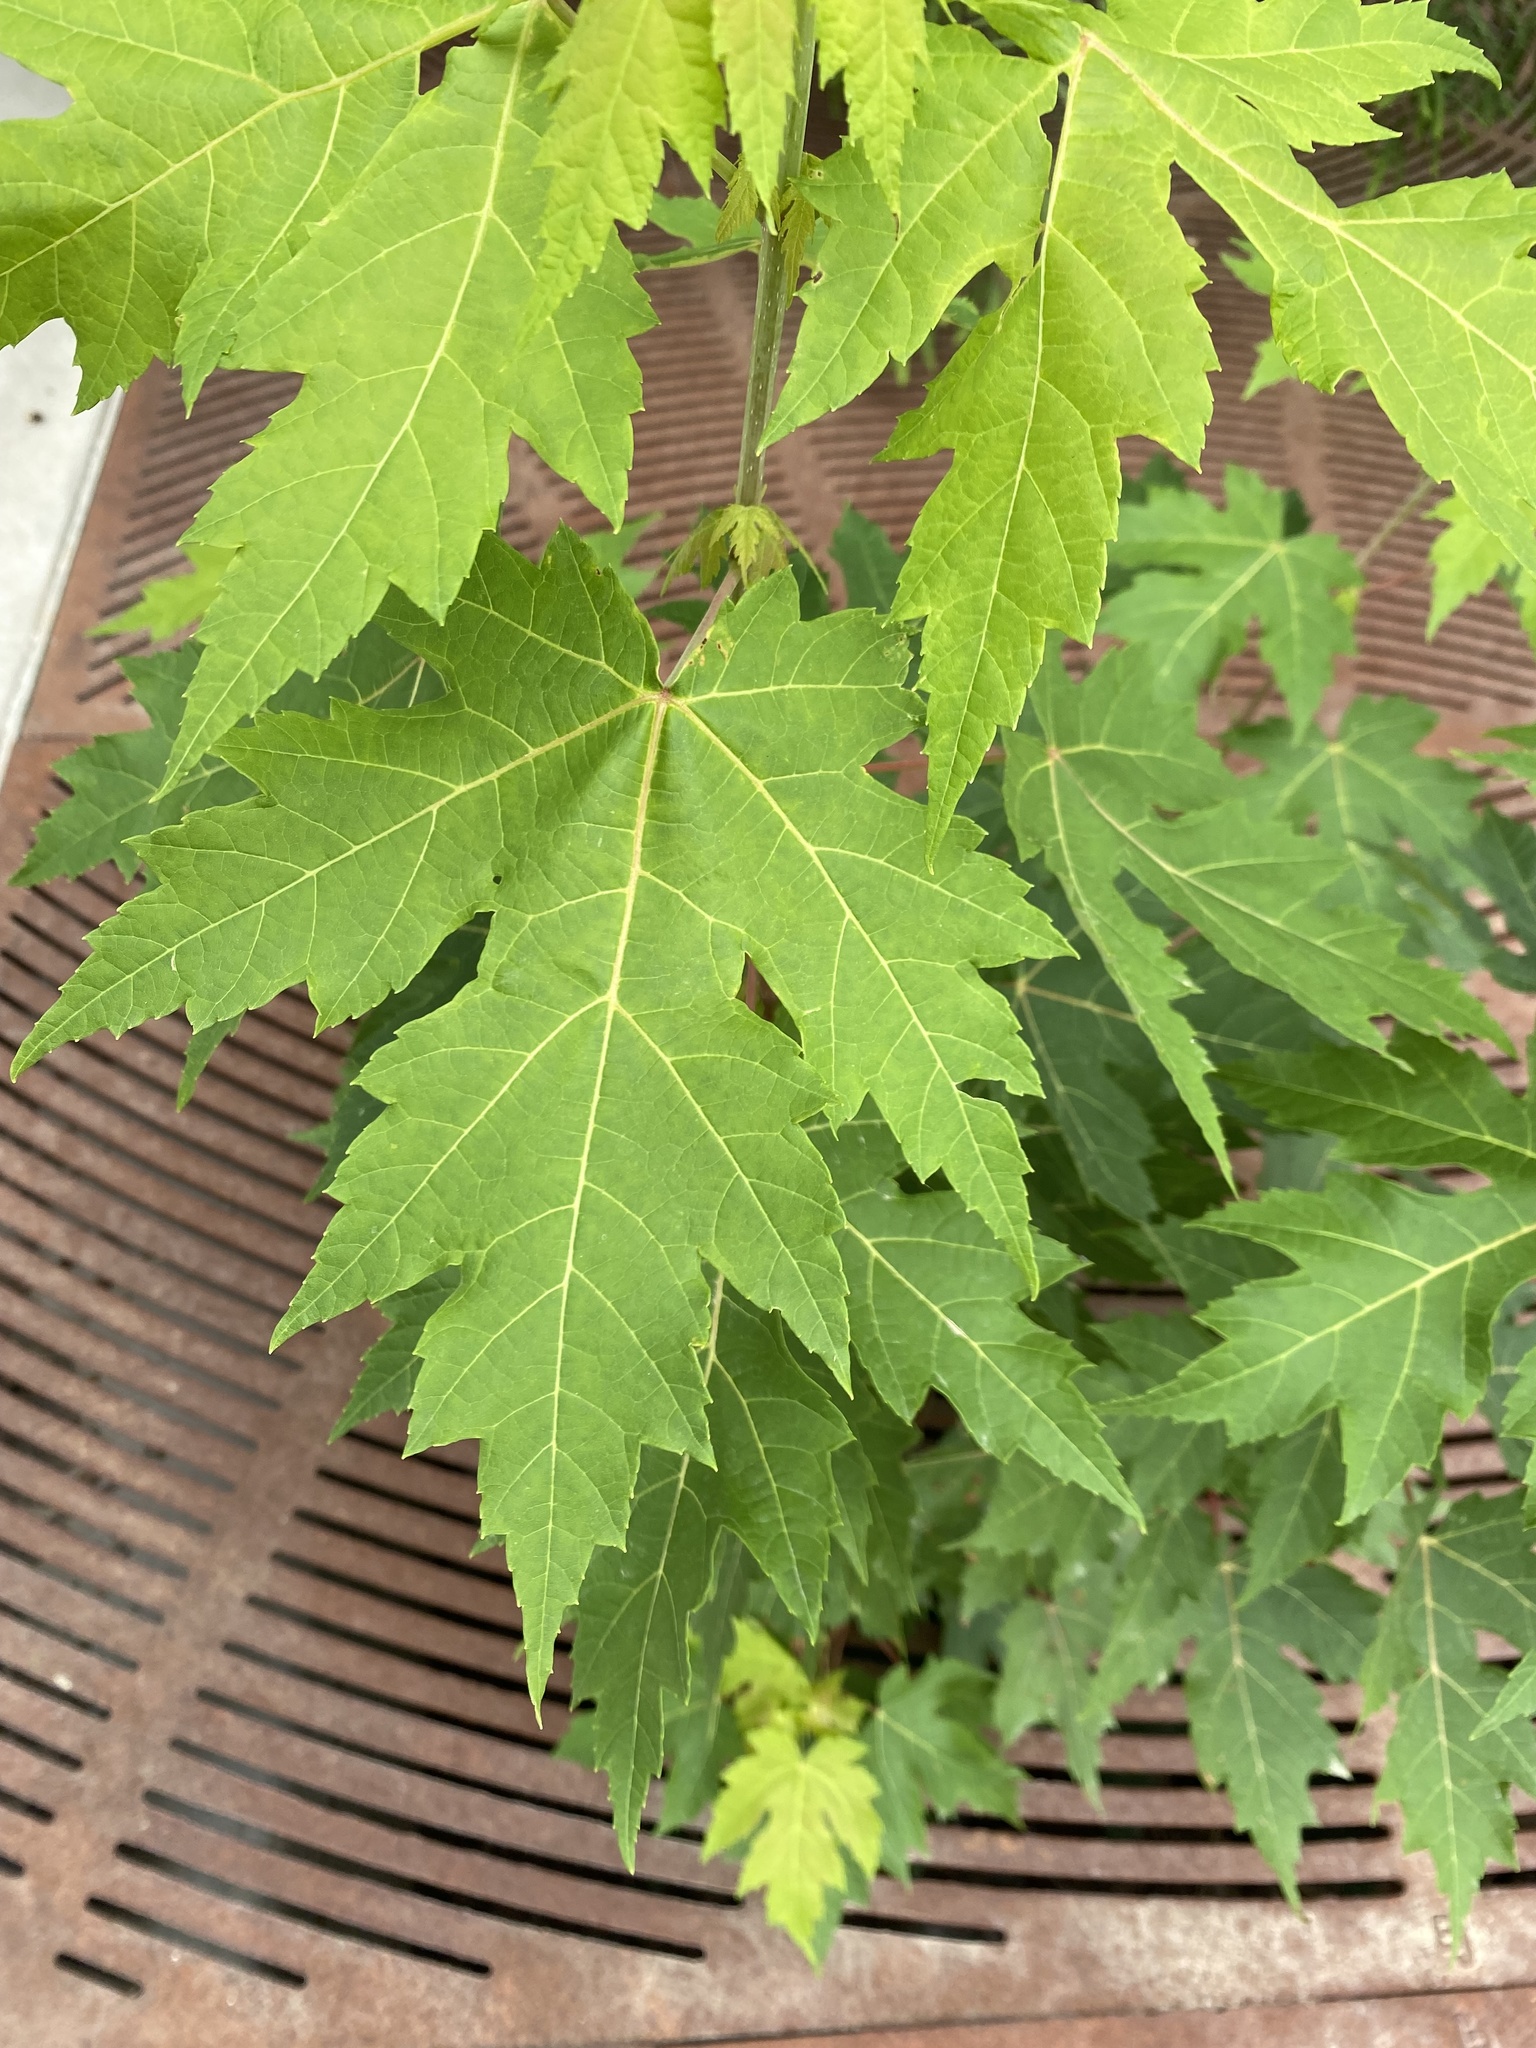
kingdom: Plantae
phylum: Tracheophyta
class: Magnoliopsida
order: Sapindales
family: Sapindaceae
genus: Acer
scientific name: Acer saccharinum
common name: Silver maple
